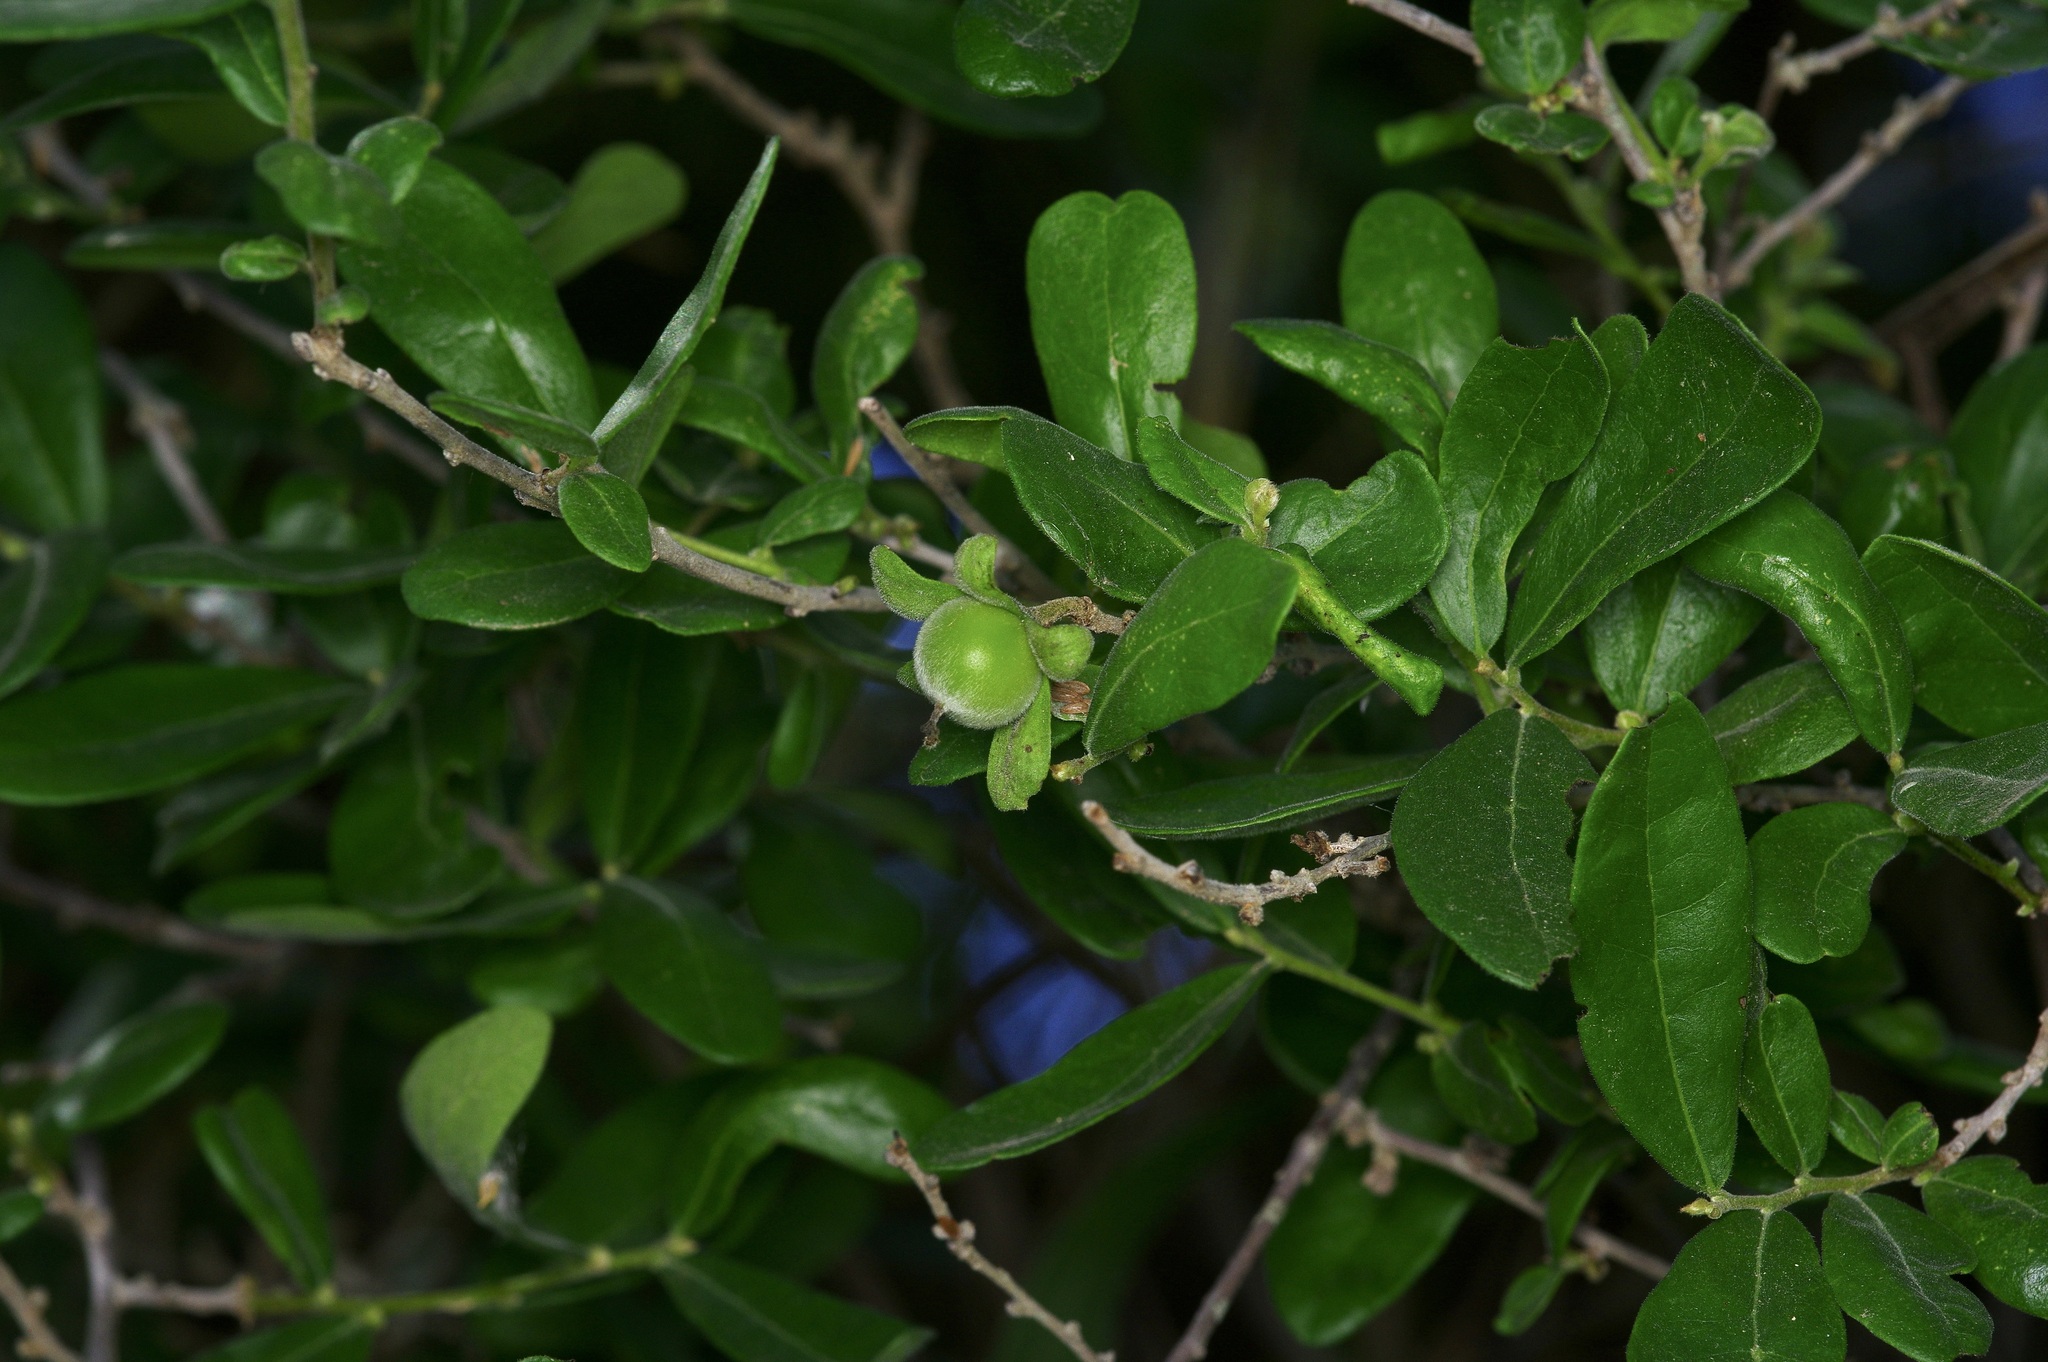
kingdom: Plantae
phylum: Tracheophyta
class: Magnoliopsida
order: Ericales
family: Ebenaceae
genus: Diospyros
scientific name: Diospyros texana
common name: Texas persimmon
